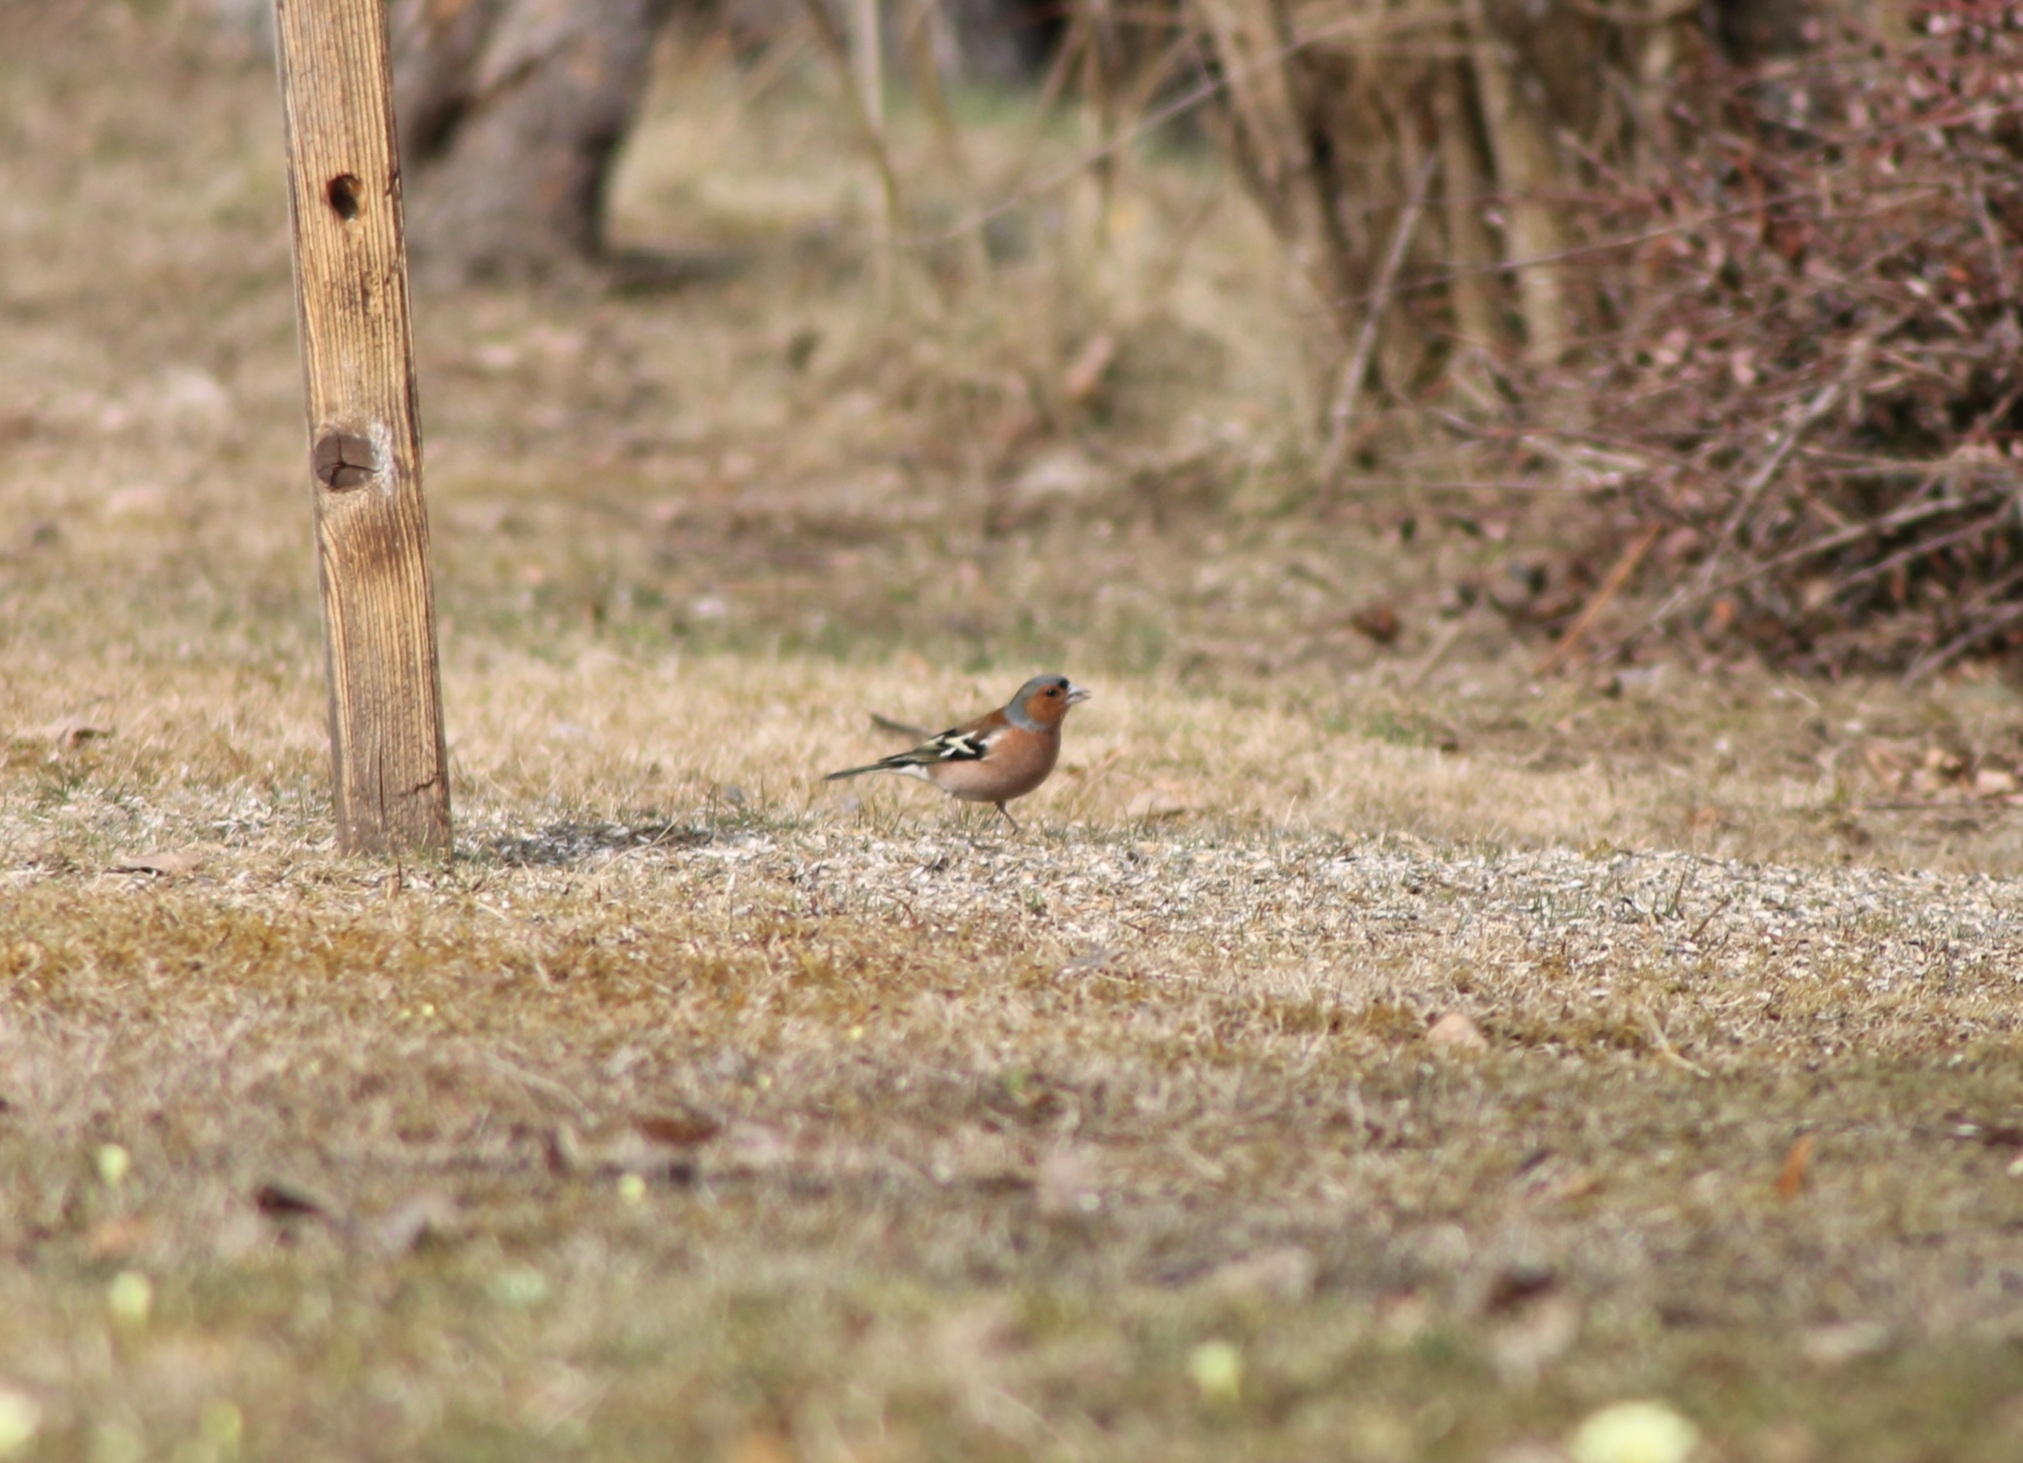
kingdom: Animalia
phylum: Chordata
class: Aves
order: Passeriformes
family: Fringillidae
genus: Fringilla
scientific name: Fringilla coelebs
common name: Common chaffinch
